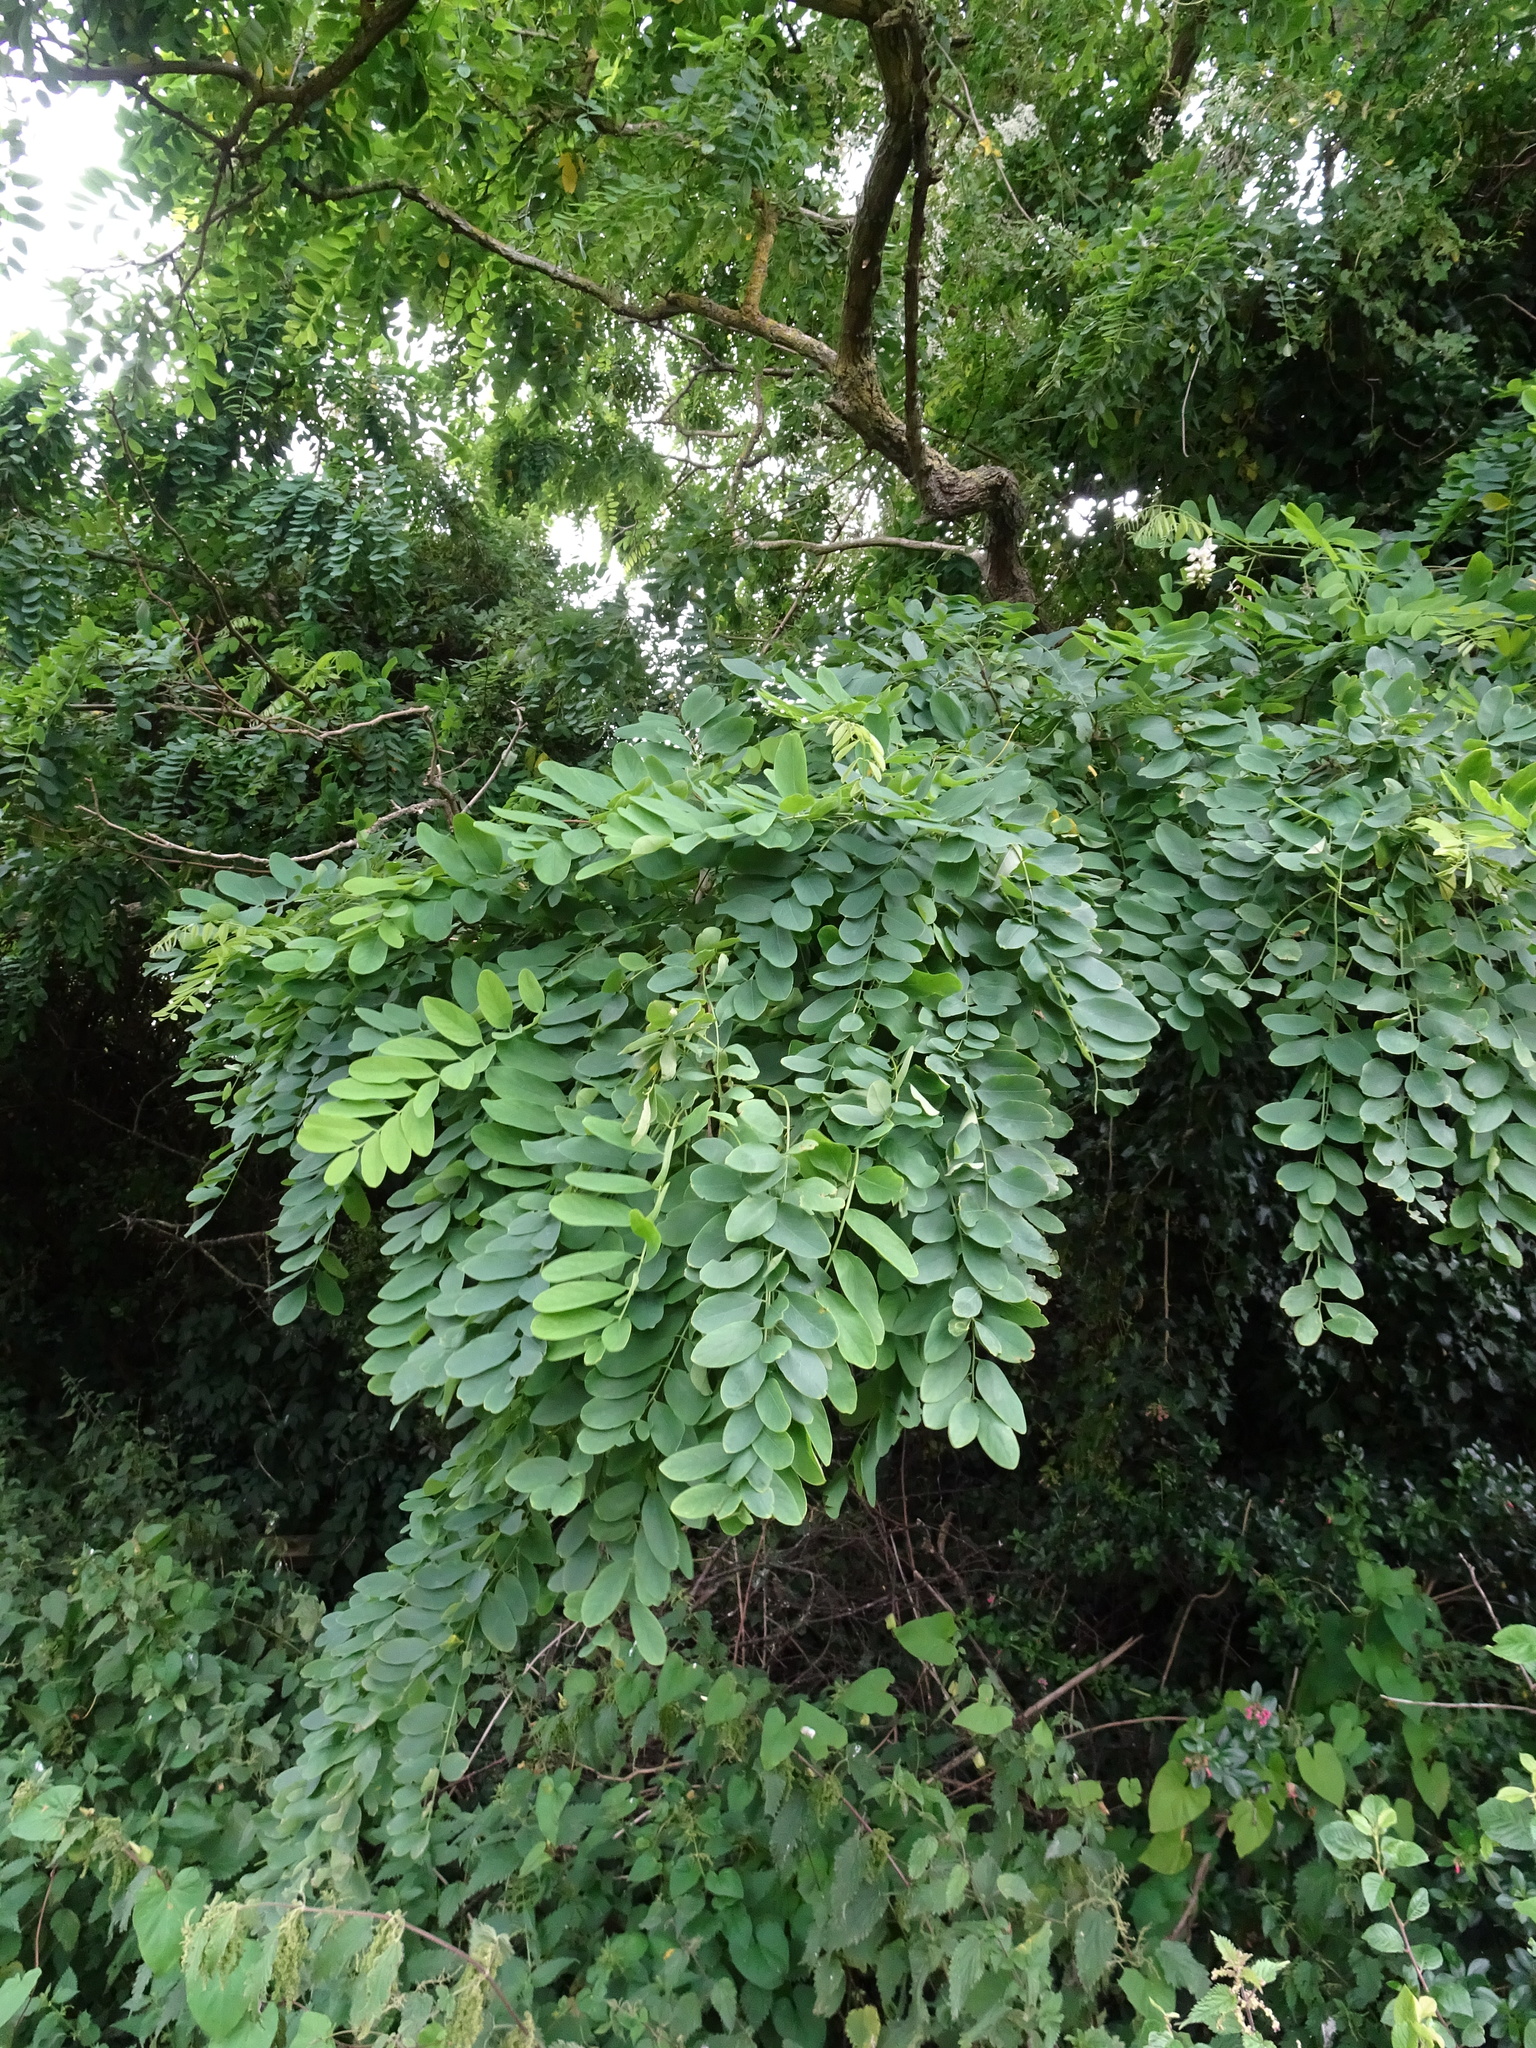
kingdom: Plantae
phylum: Tracheophyta
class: Magnoliopsida
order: Fabales
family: Fabaceae
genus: Robinia
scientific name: Robinia pseudoacacia
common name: Black locust
